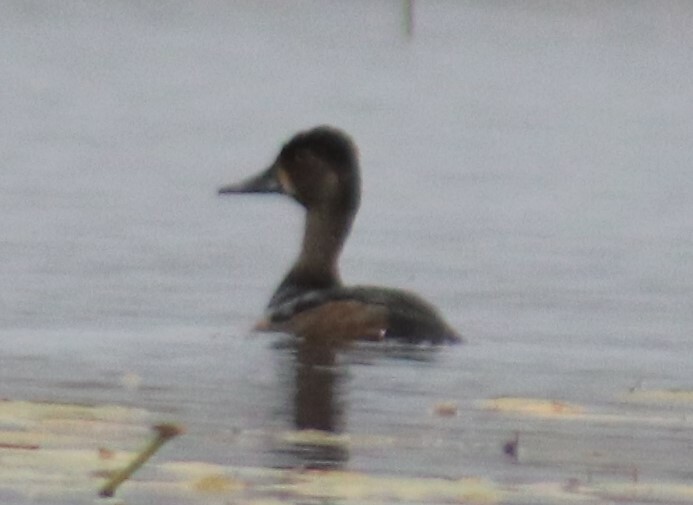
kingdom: Animalia
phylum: Chordata
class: Aves
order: Anseriformes
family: Anatidae
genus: Aythya
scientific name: Aythya collaris
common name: Ring-necked duck
